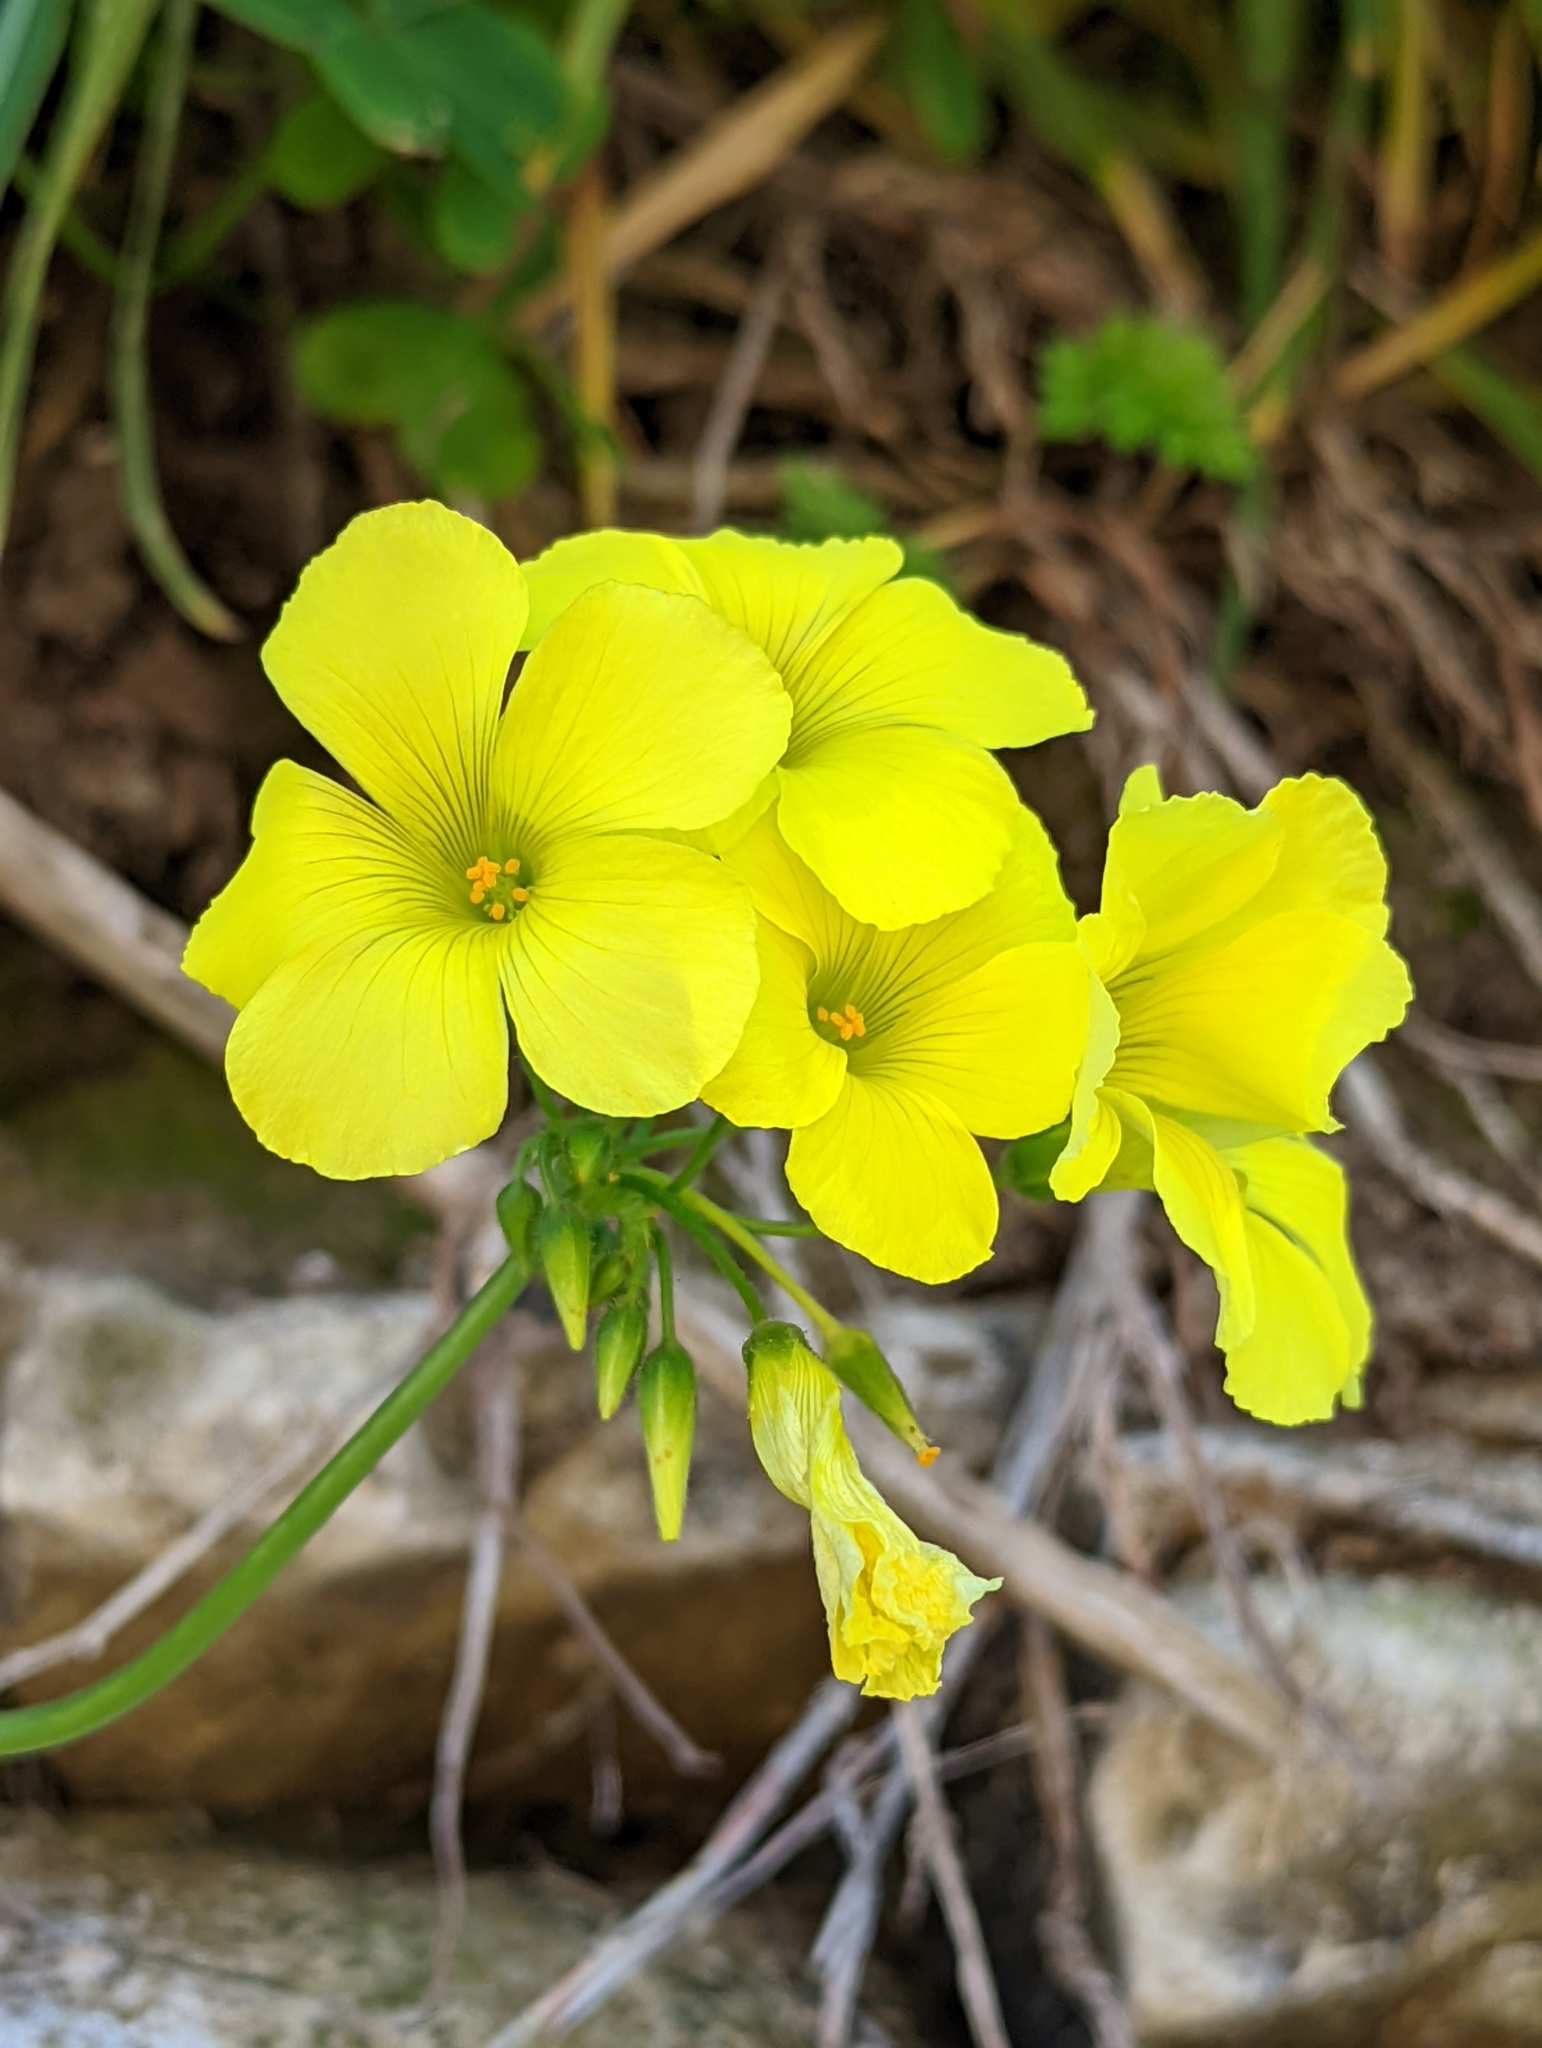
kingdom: Plantae
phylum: Tracheophyta
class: Magnoliopsida
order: Oxalidales
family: Oxalidaceae
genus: Oxalis
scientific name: Oxalis pes-caprae
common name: Bermuda-buttercup
